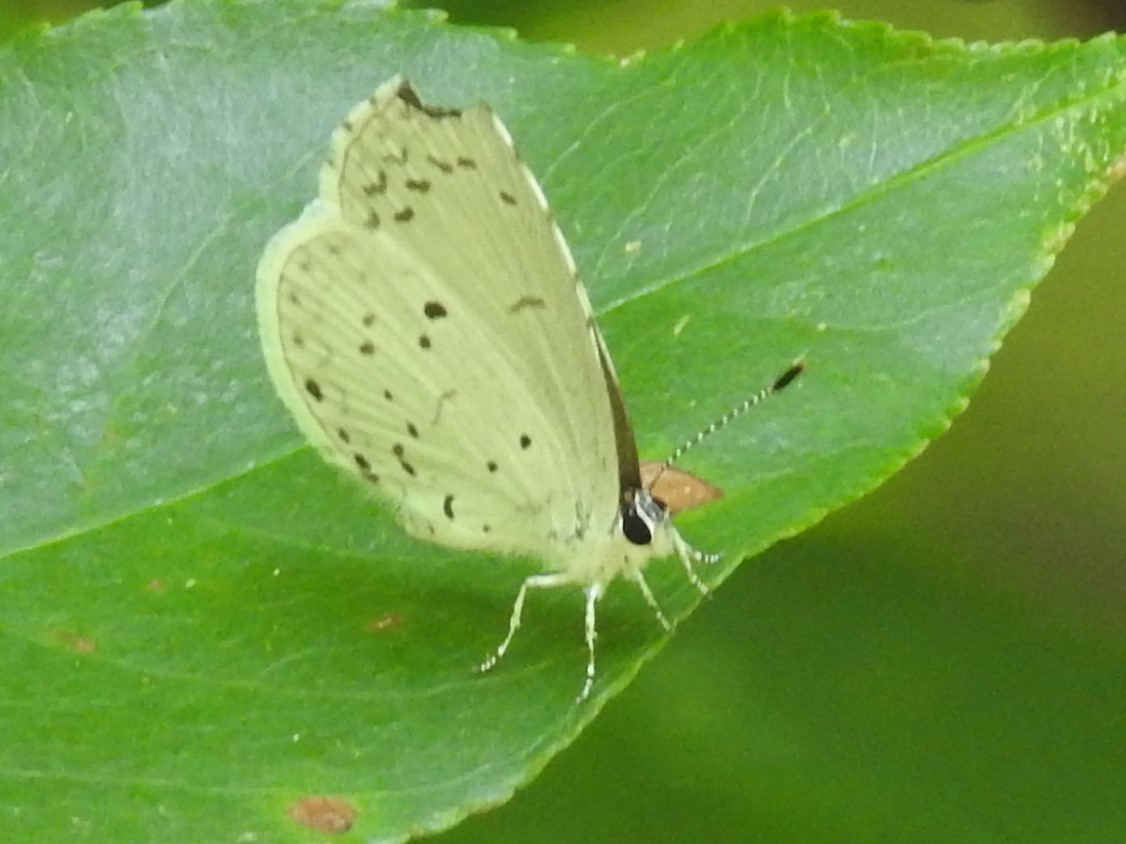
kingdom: Animalia
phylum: Arthropoda
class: Insecta
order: Lepidoptera
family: Lycaenidae
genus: Cyaniris
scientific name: Cyaniris neglecta
